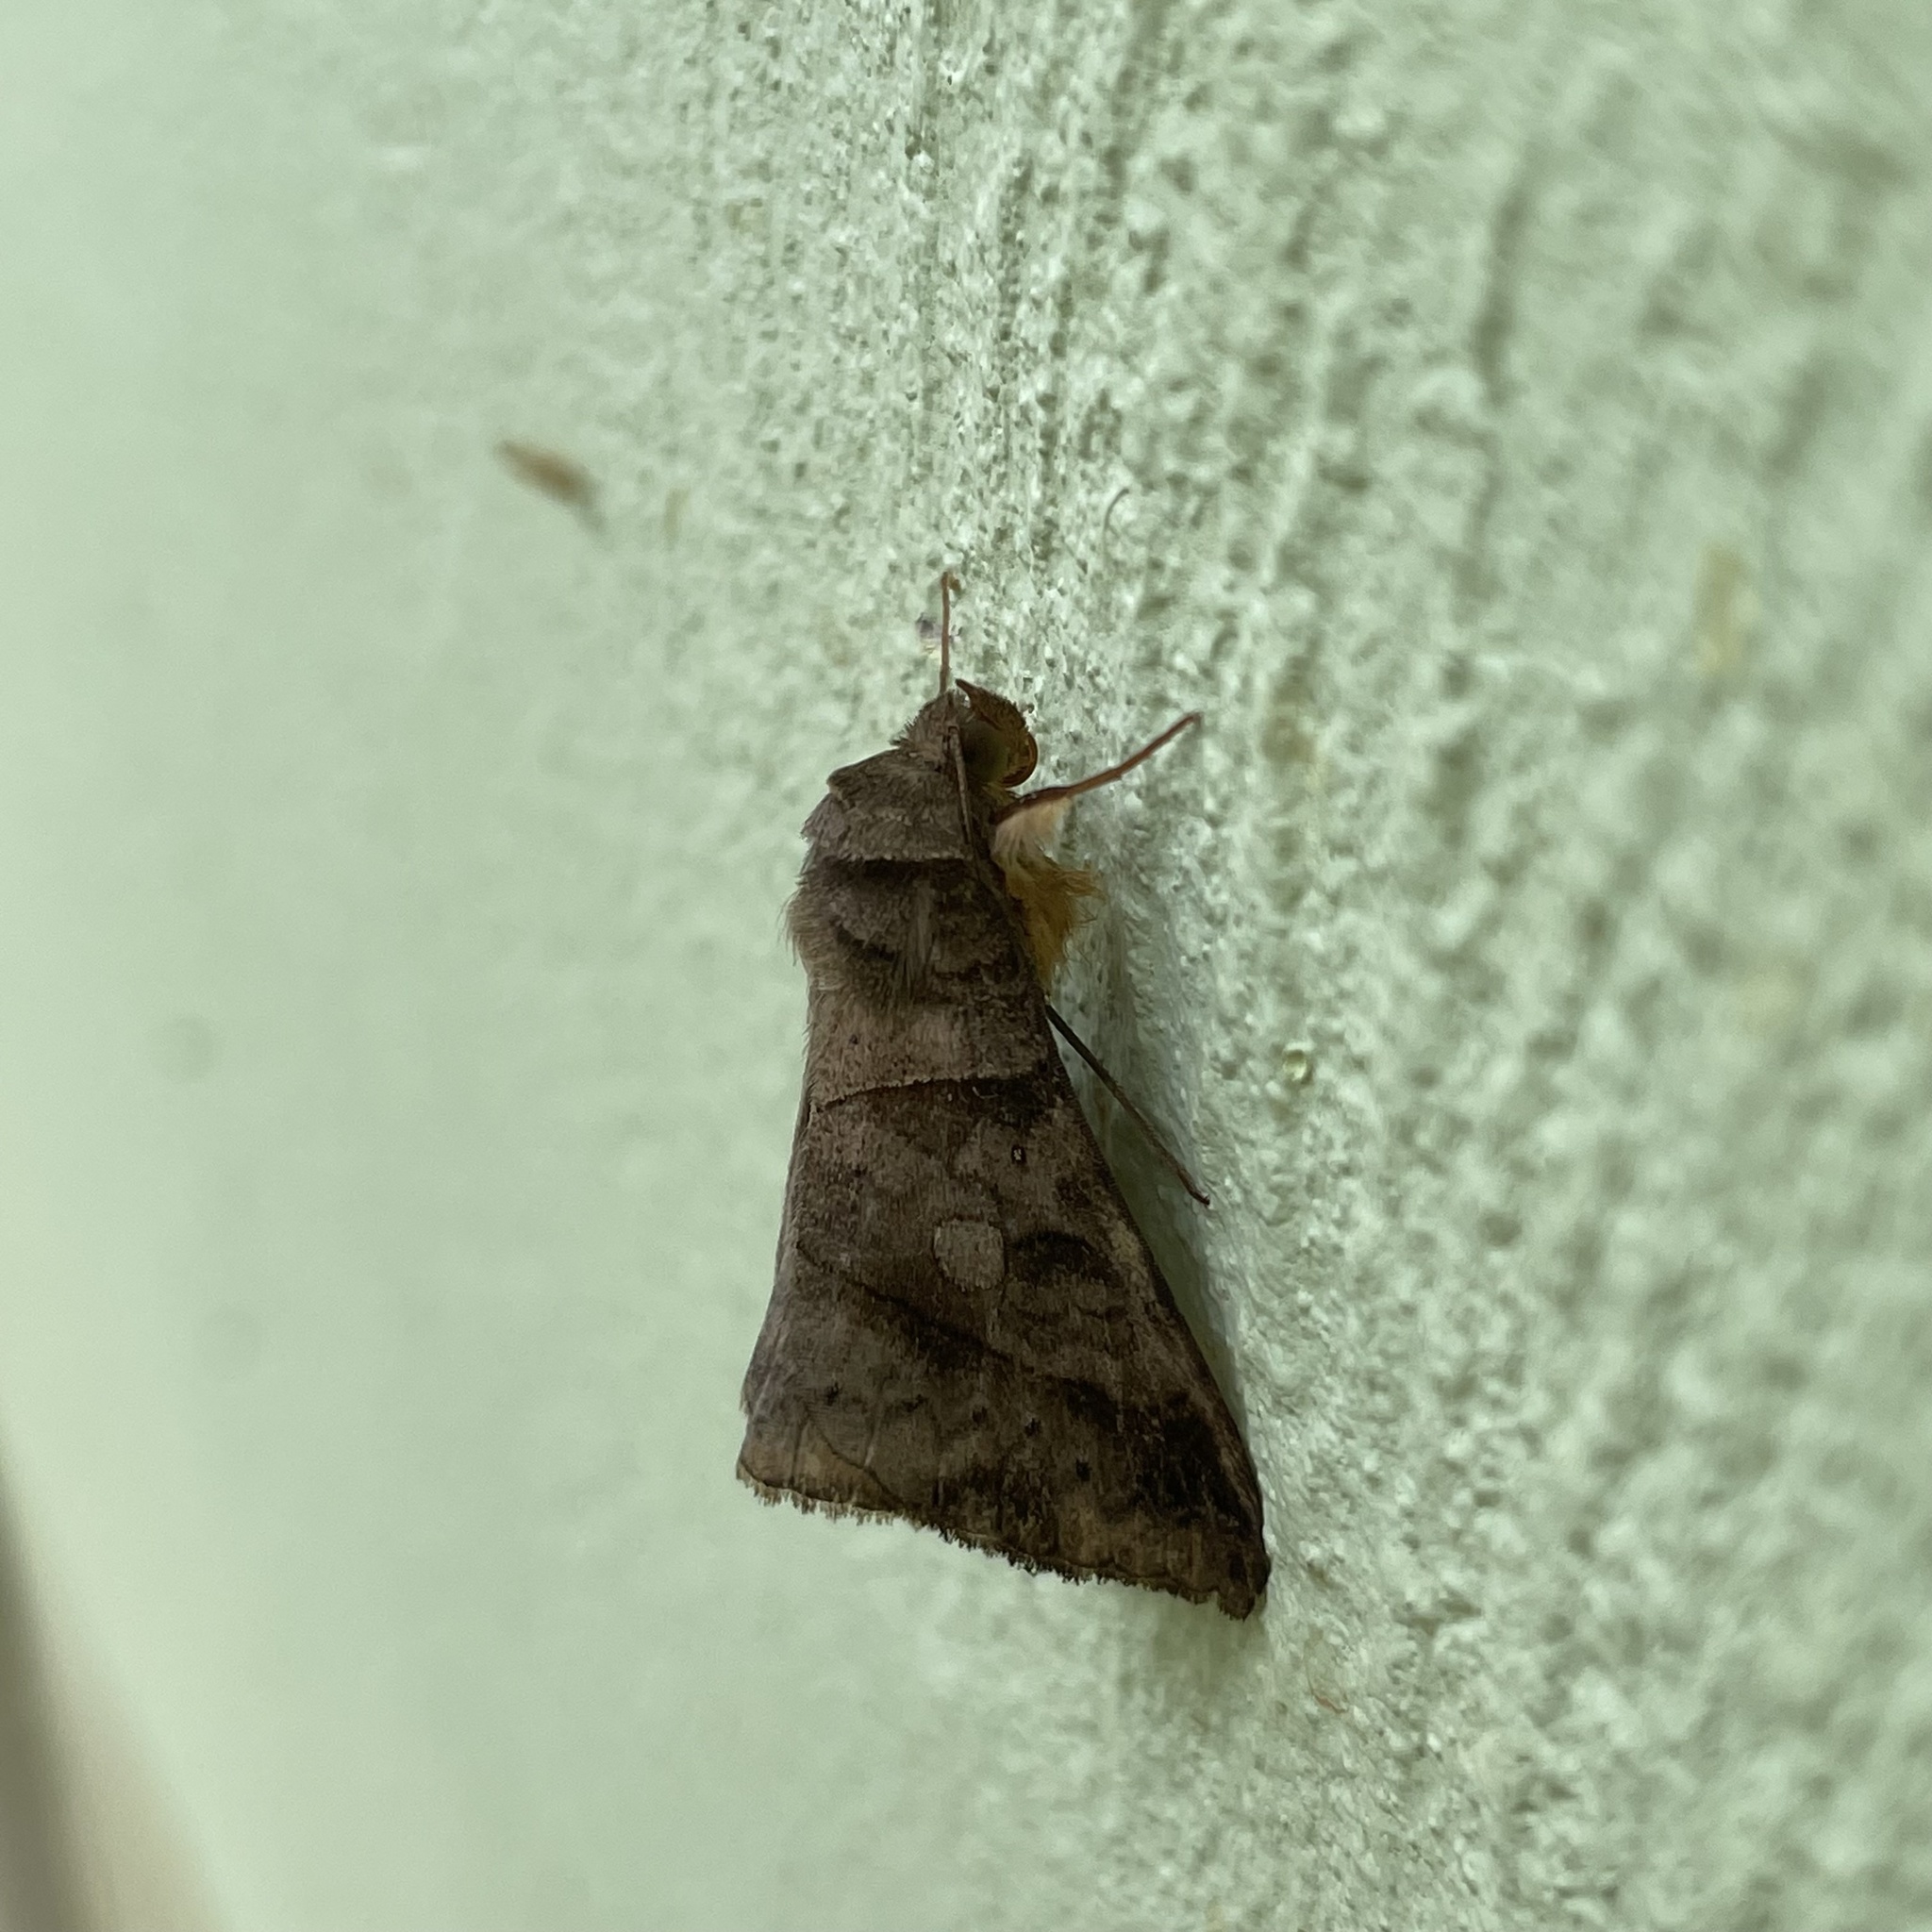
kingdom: Animalia
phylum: Arthropoda
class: Insecta
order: Lepidoptera
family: Erebidae
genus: Mocis
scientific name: Mocis latipes
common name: Striped grass looper
